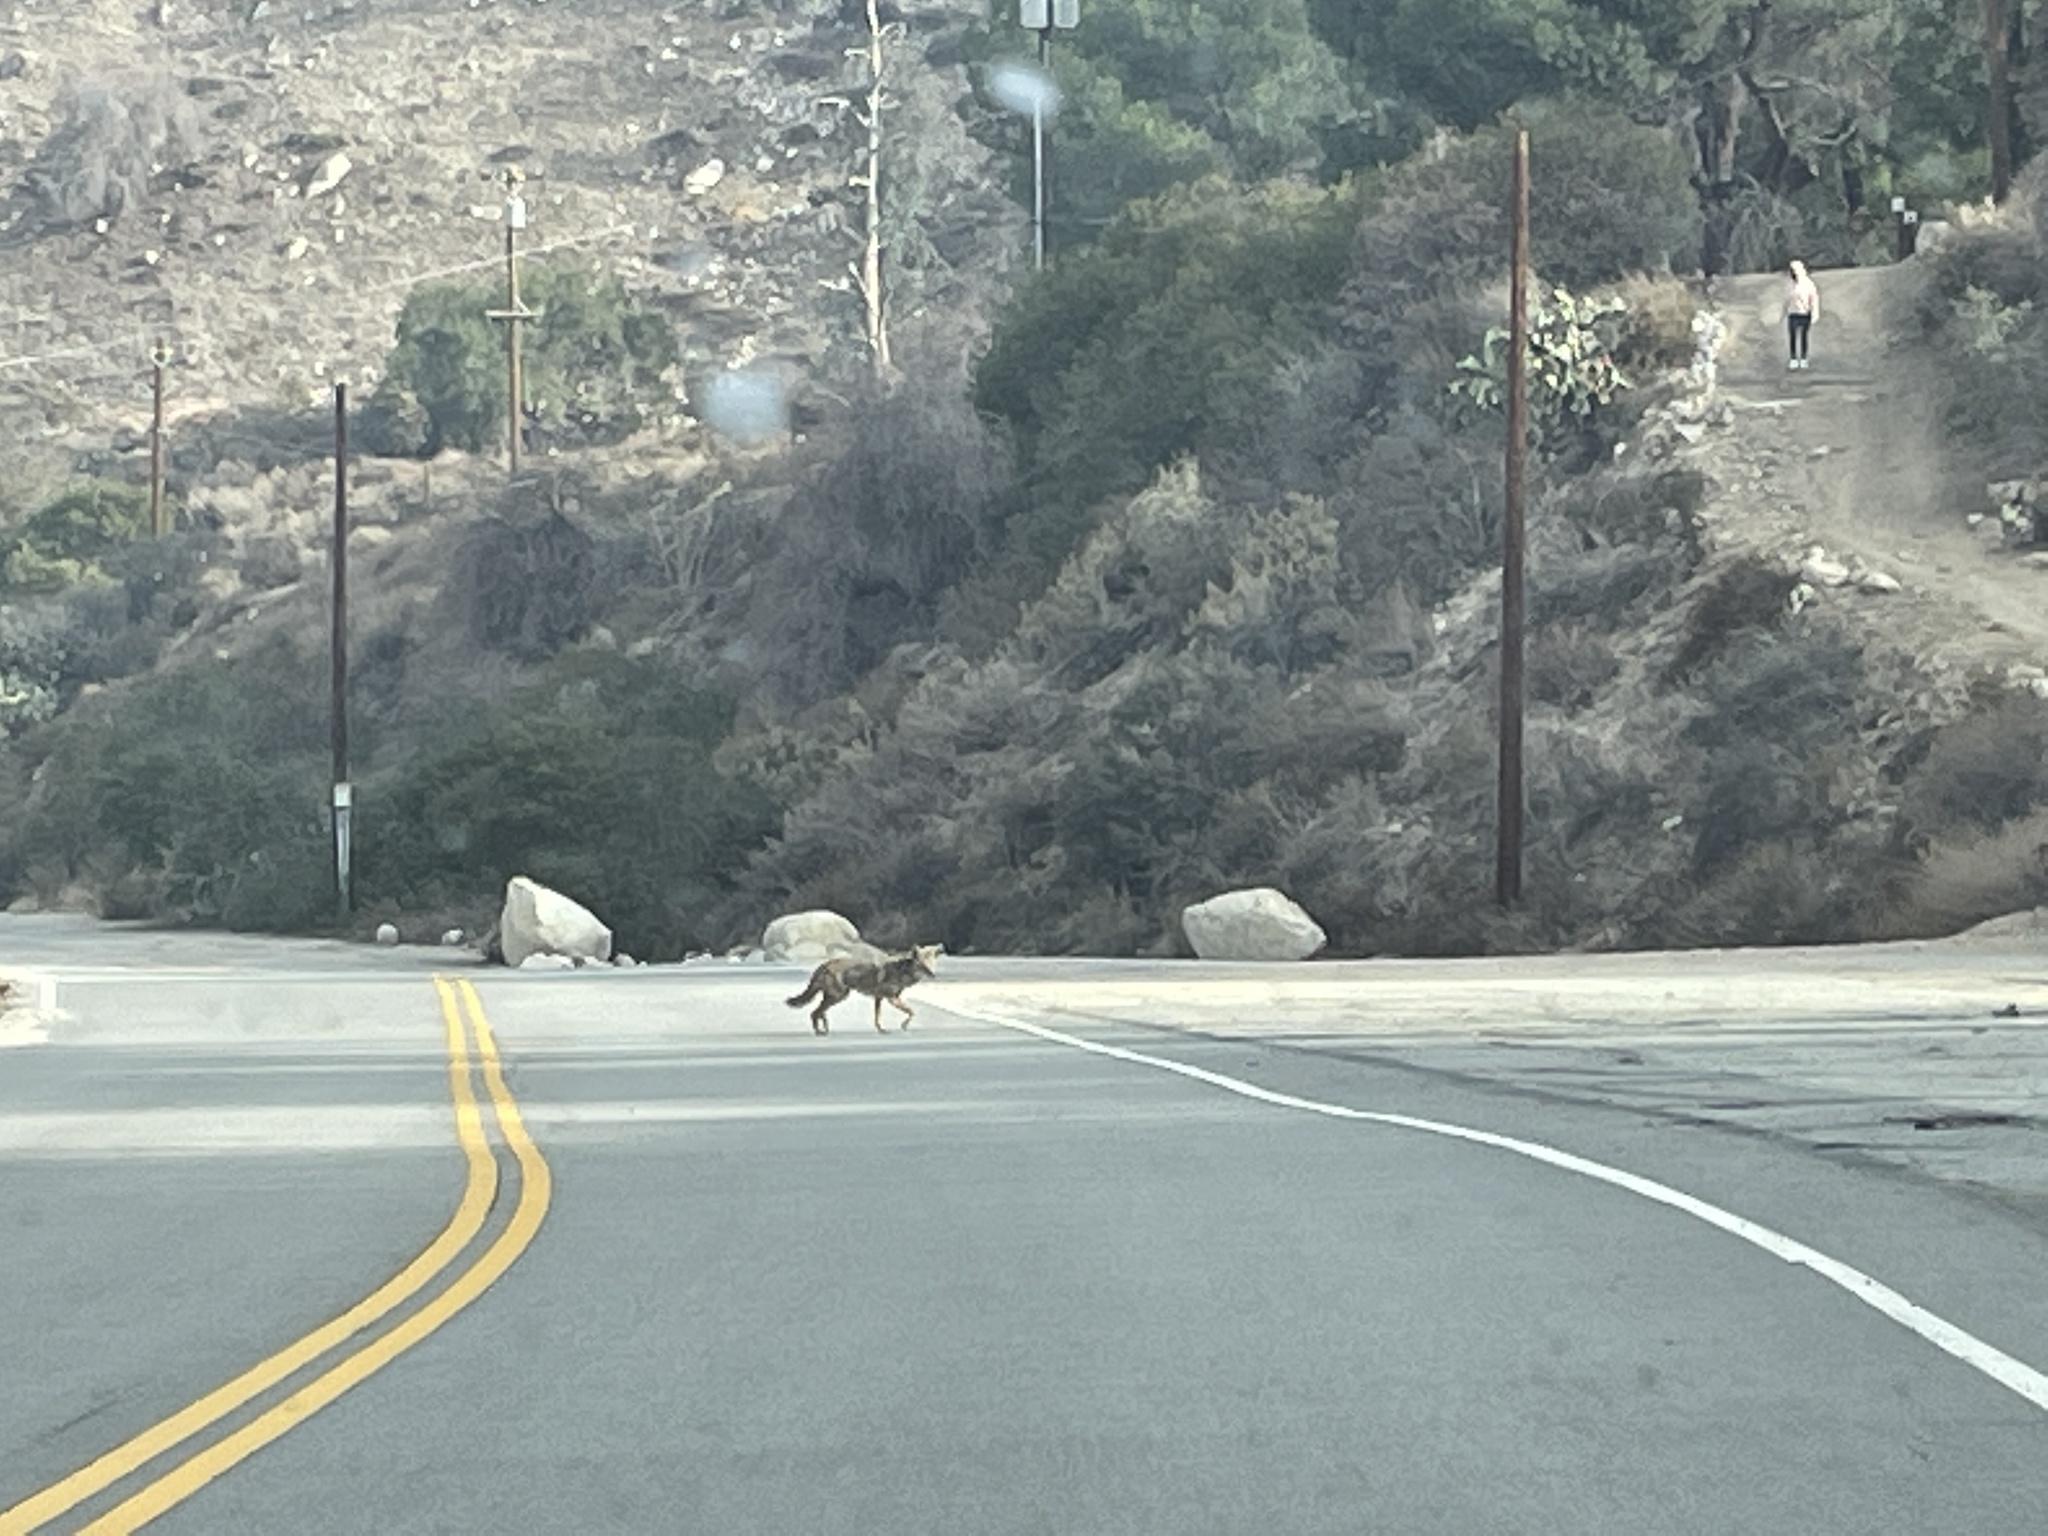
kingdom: Animalia
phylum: Chordata
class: Mammalia
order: Carnivora
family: Canidae
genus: Canis
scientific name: Canis latrans
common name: Coyote
